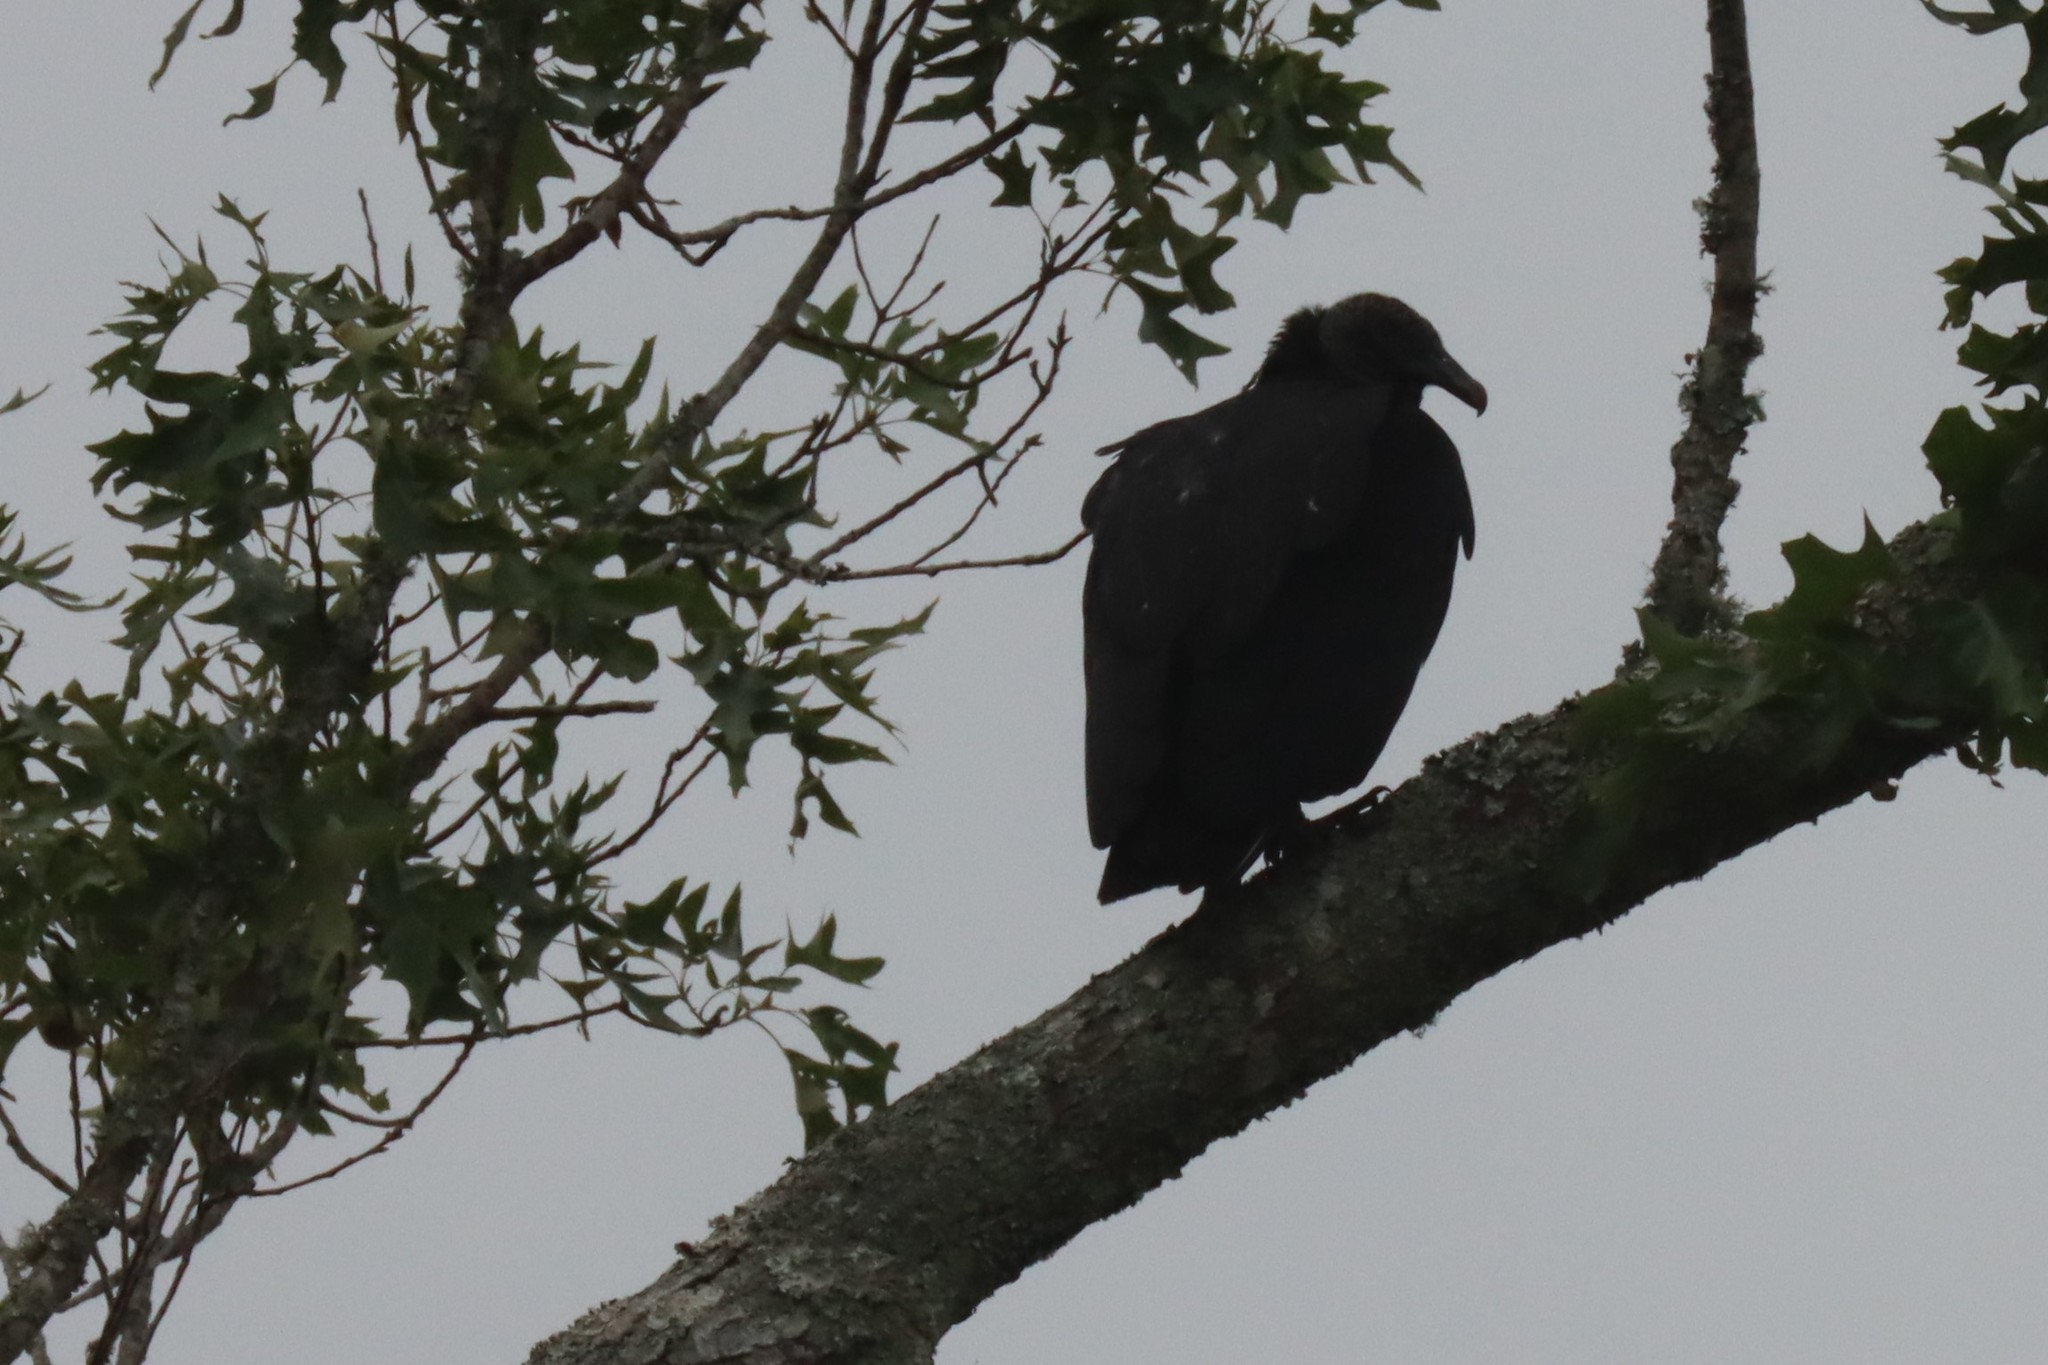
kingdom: Animalia
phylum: Chordata
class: Aves
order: Accipitriformes
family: Cathartidae
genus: Coragyps
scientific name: Coragyps atratus
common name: Black vulture
